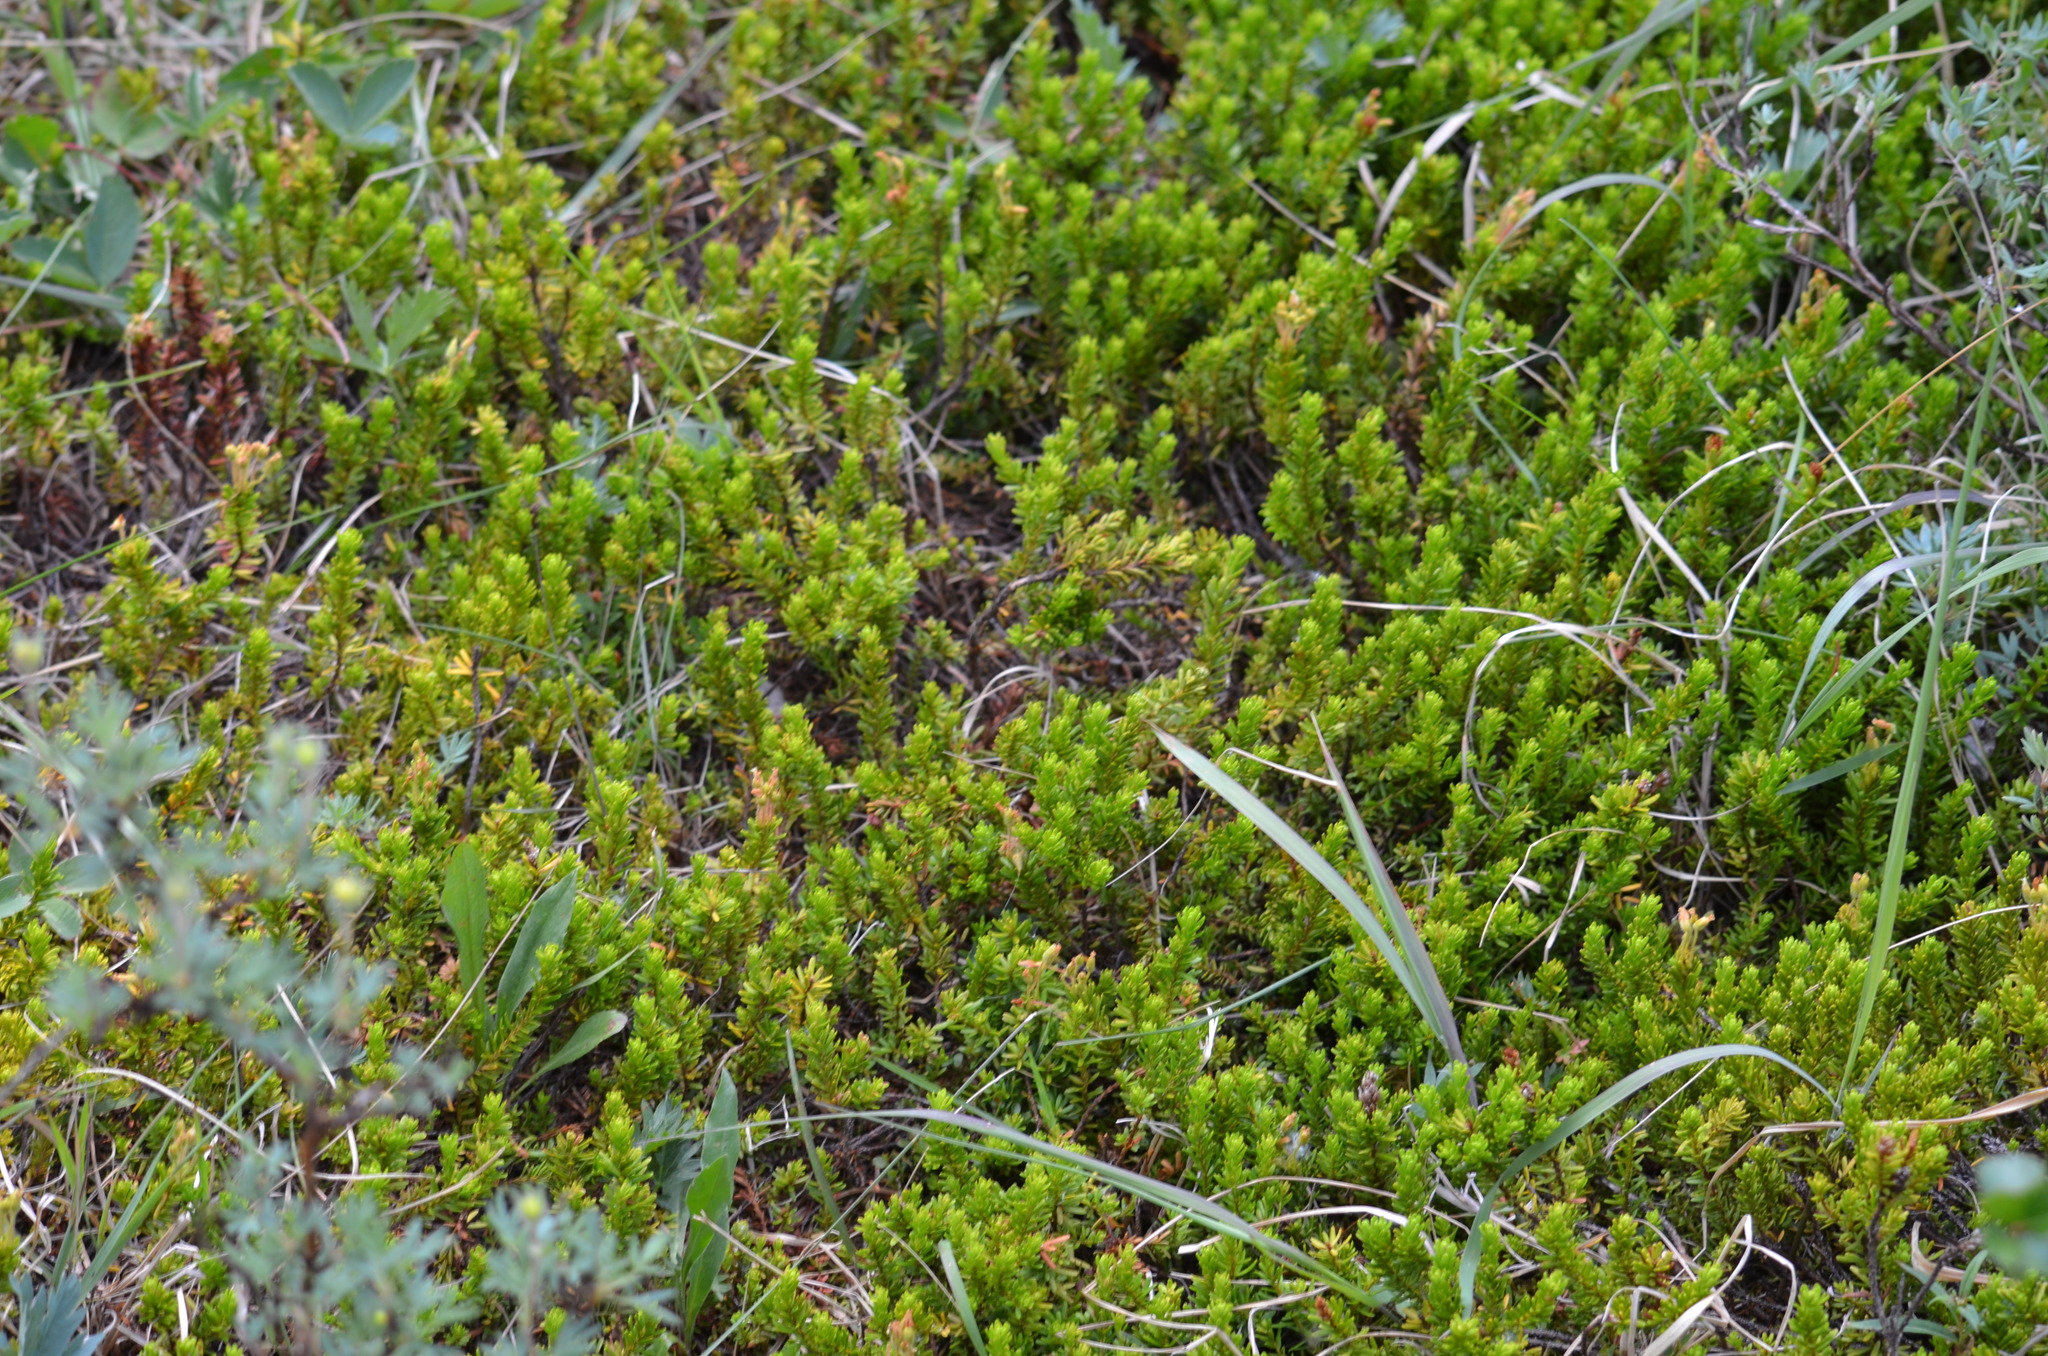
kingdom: Plantae
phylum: Tracheophyta
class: Magnoliopsida
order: Ericales
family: Ericaceae
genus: Phyllodoce
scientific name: Phyllodoce
